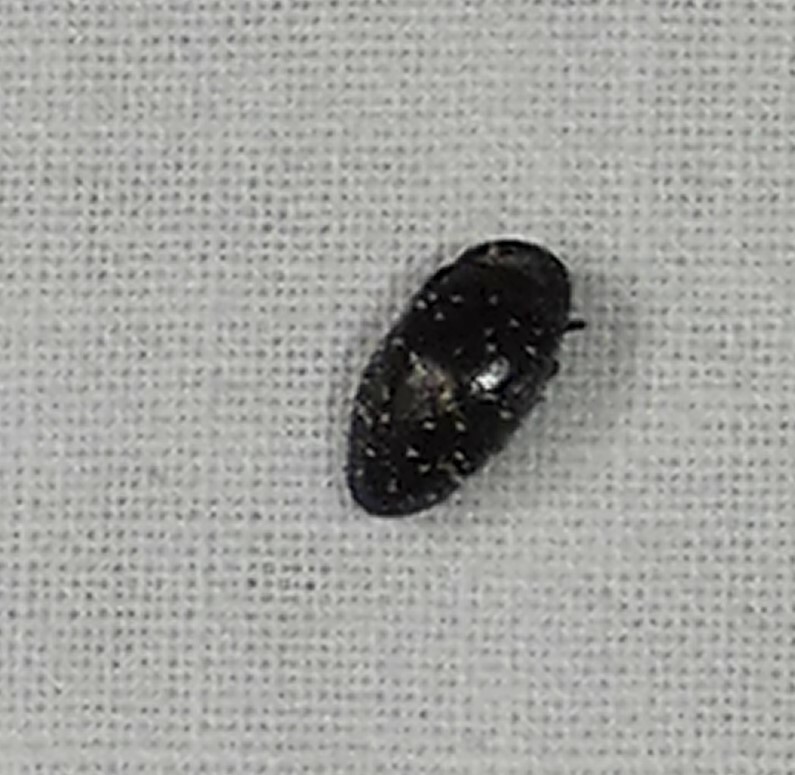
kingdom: Animalia
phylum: Arthropoda
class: Insecta
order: Coleoptera
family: Chelonariidae
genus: Chelonarium
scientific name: Chelonarium lecontei
